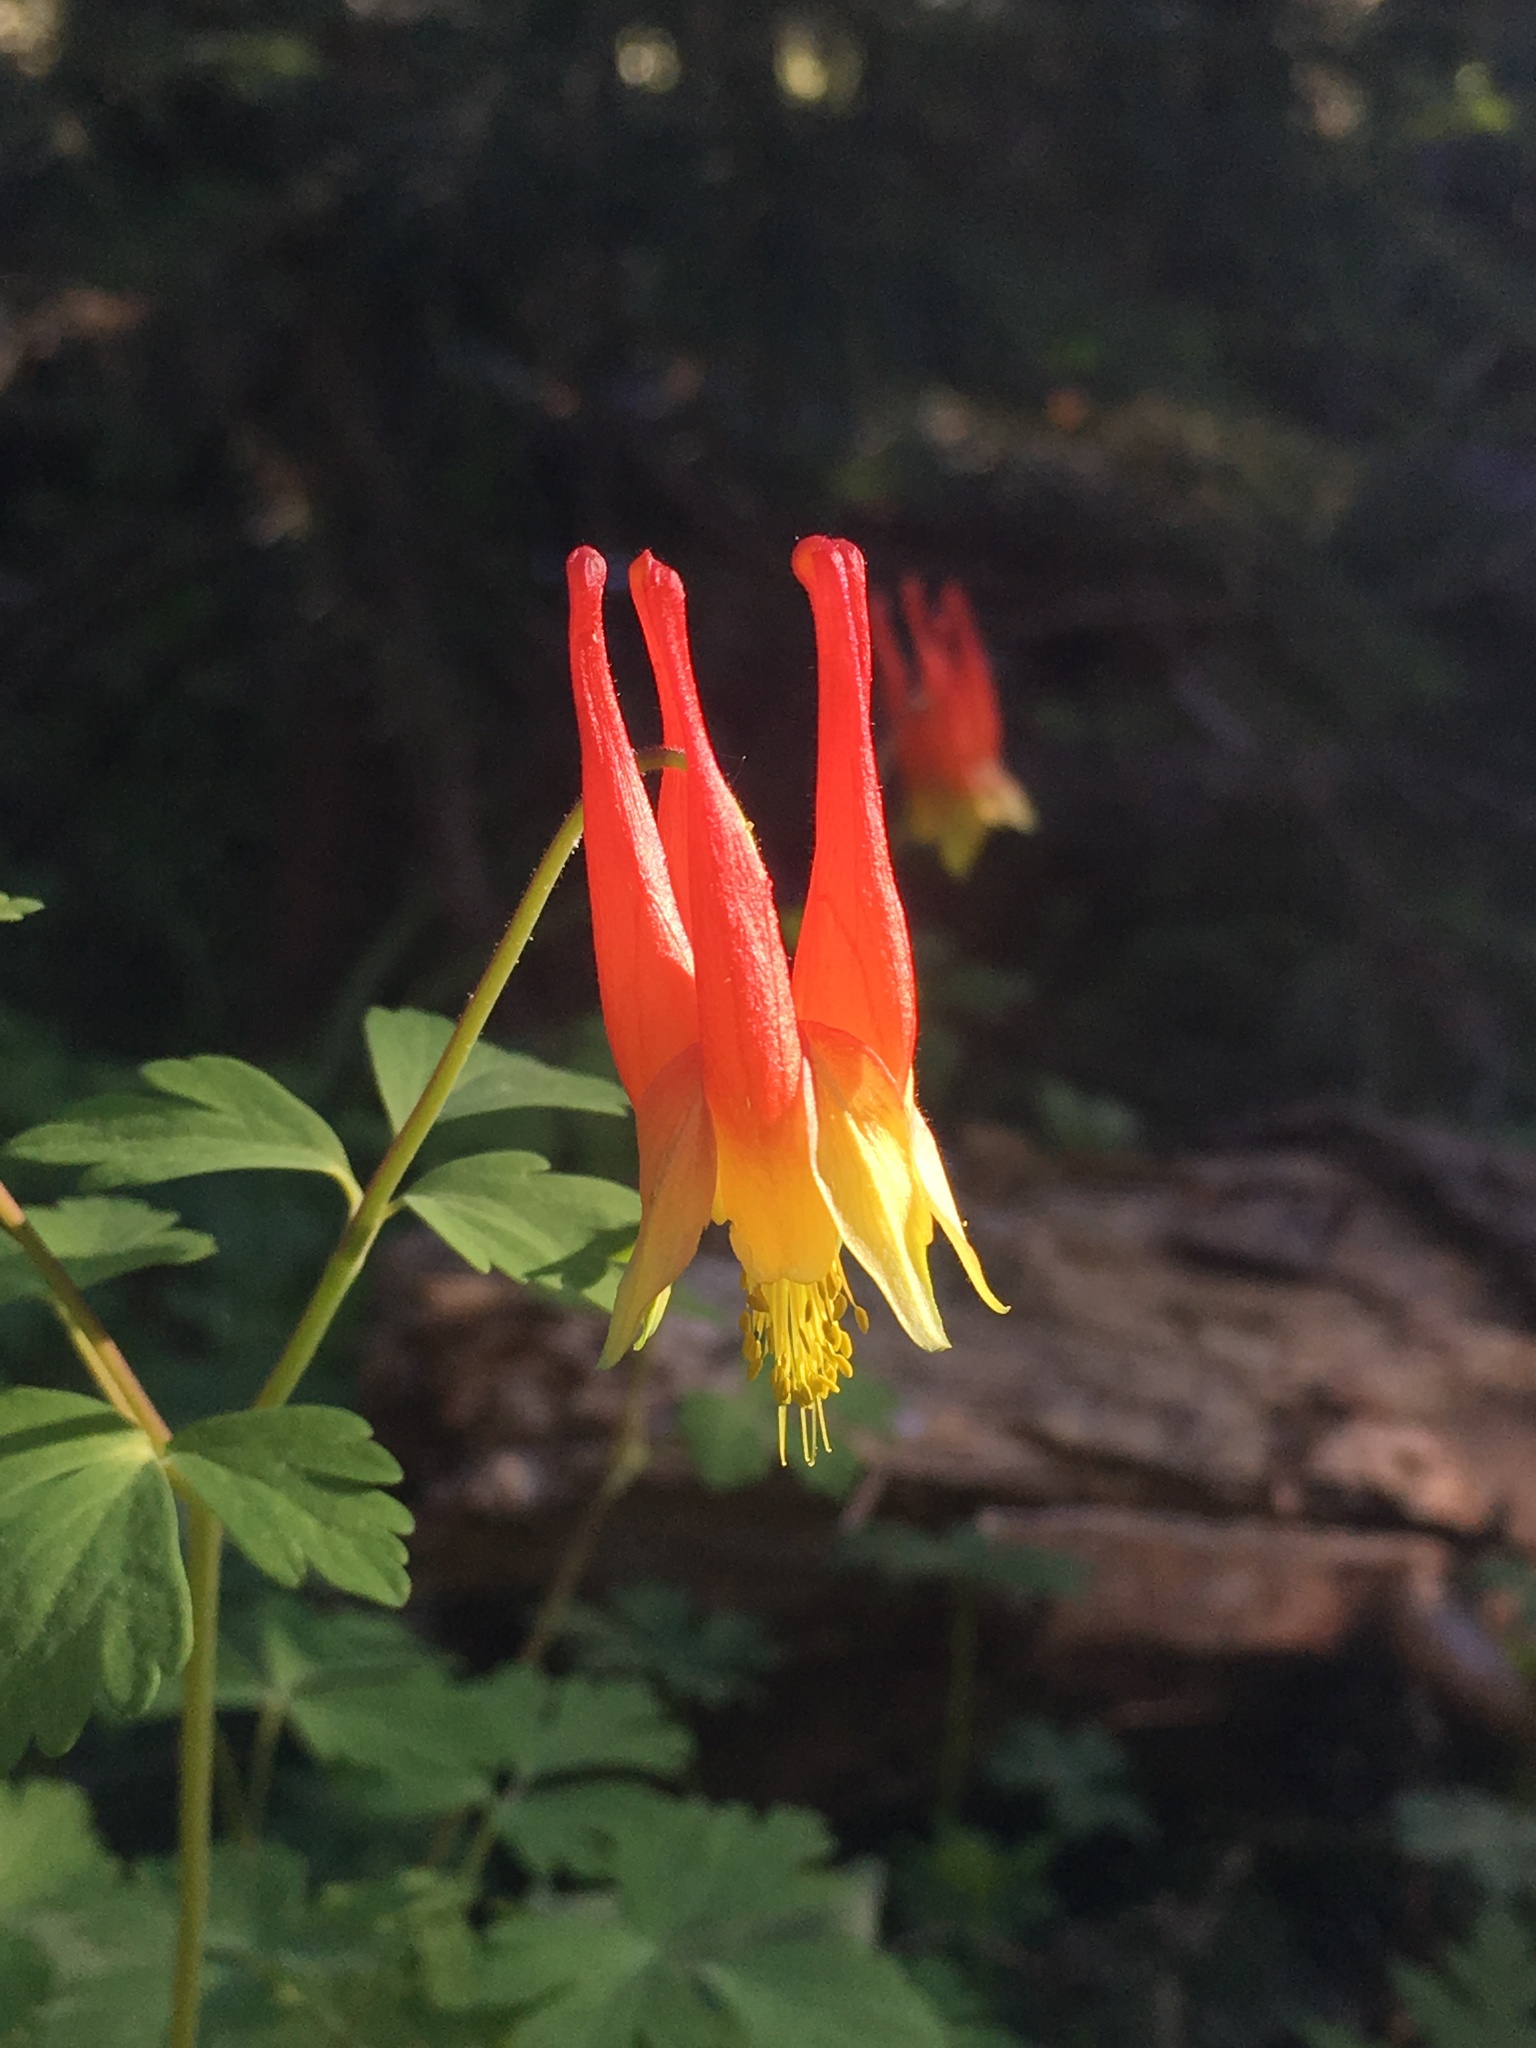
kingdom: Plantae
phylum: Tracheophyta
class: Magnoliopsida
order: Ranunculales
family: Ranunculaceae
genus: Aquilegia
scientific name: Aquilegia elegantula
